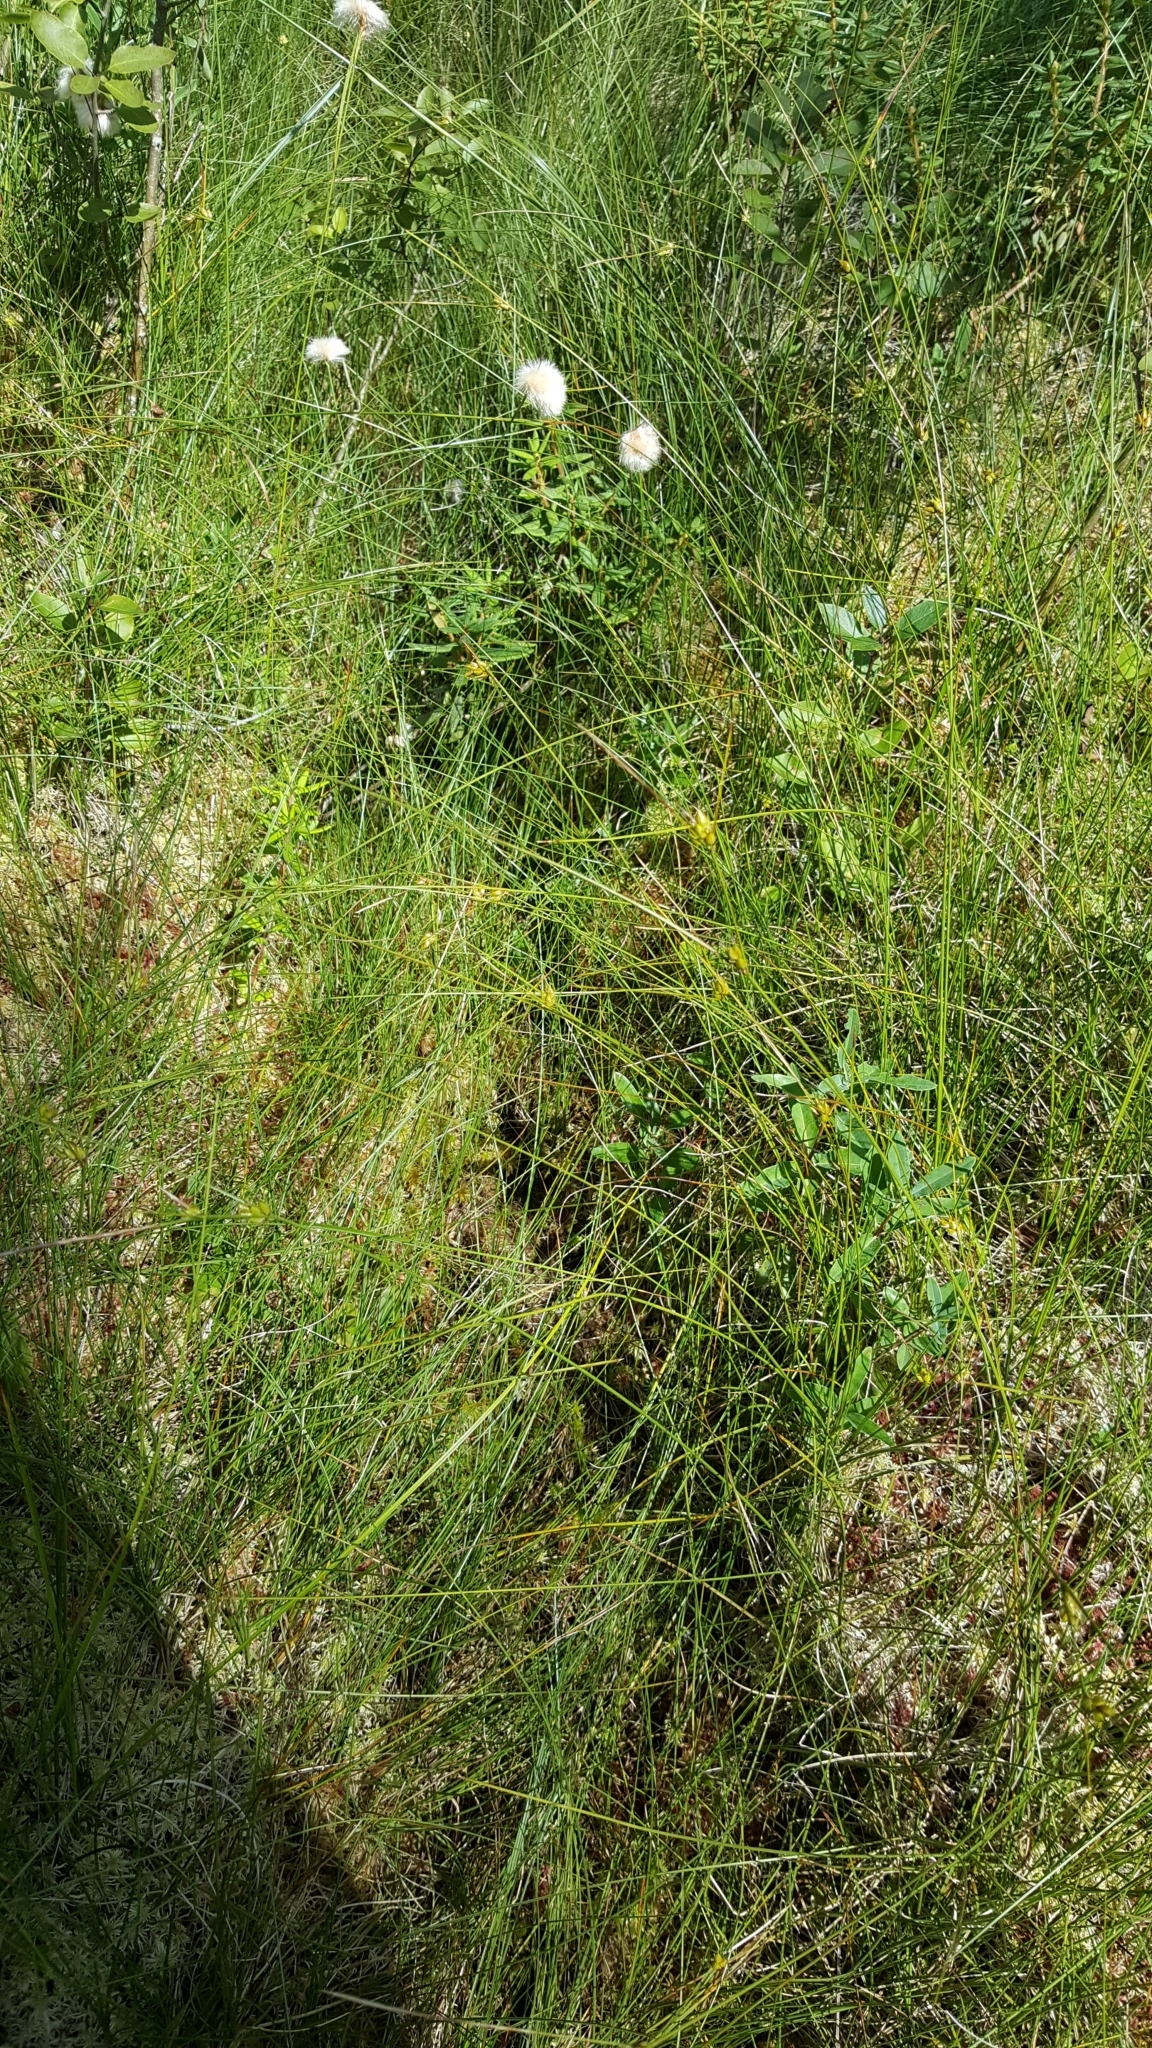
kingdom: Plantae
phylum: Tracheophyta
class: Liliopsida
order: Poales
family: Cyperaceae
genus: Carex
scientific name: Carex oligosperma
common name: Few-seed sedge
